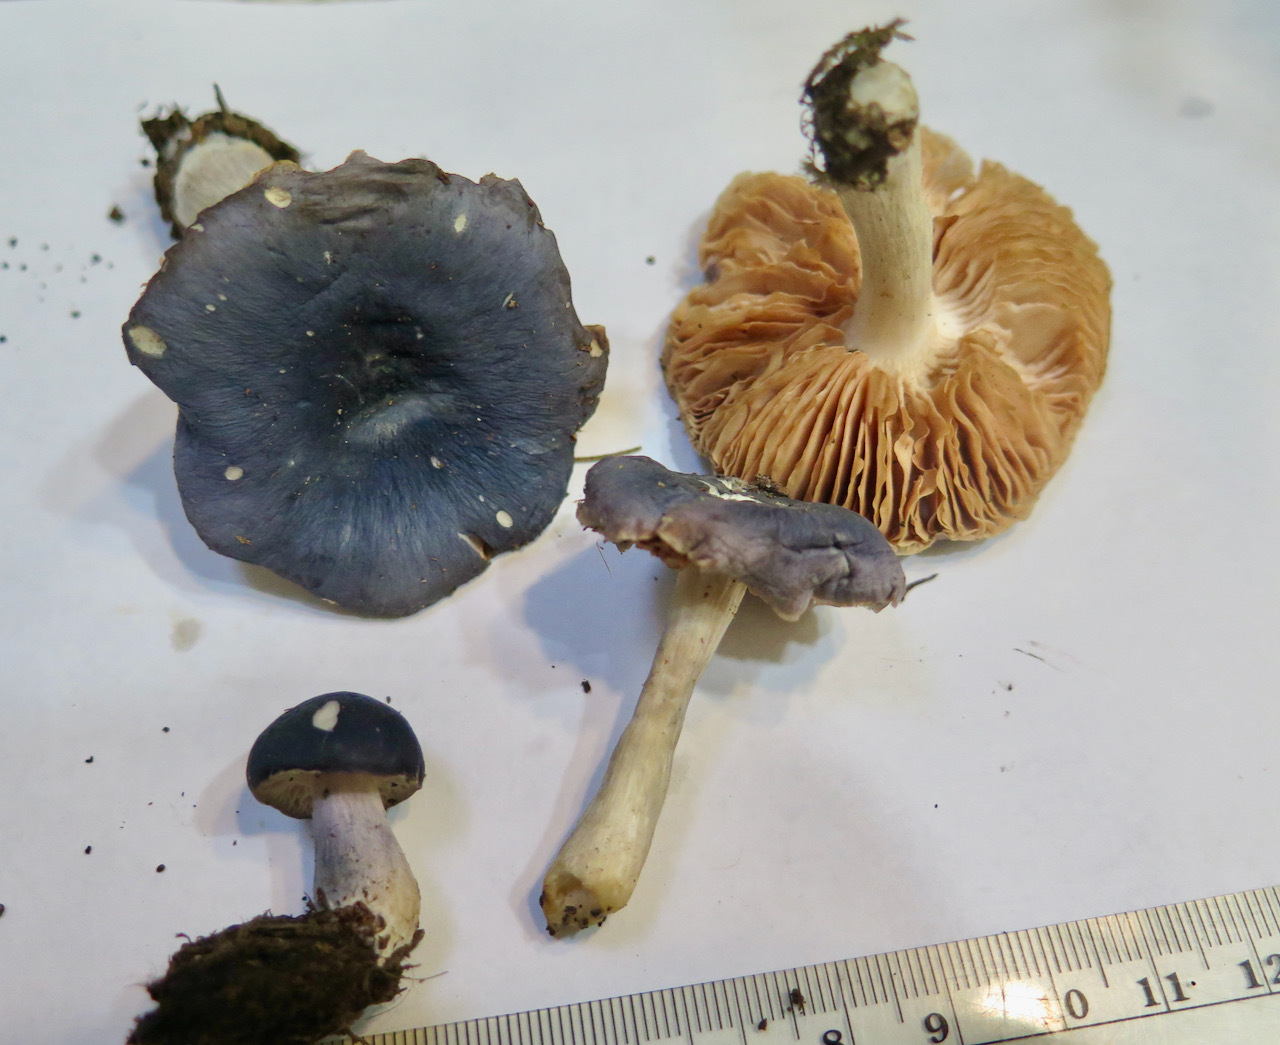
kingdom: Fungi
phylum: Basidiomycota
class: Agaricomycetes
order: Agaricales
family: Entolomataceae
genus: Entoloma
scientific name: Entoloma indigoferum
